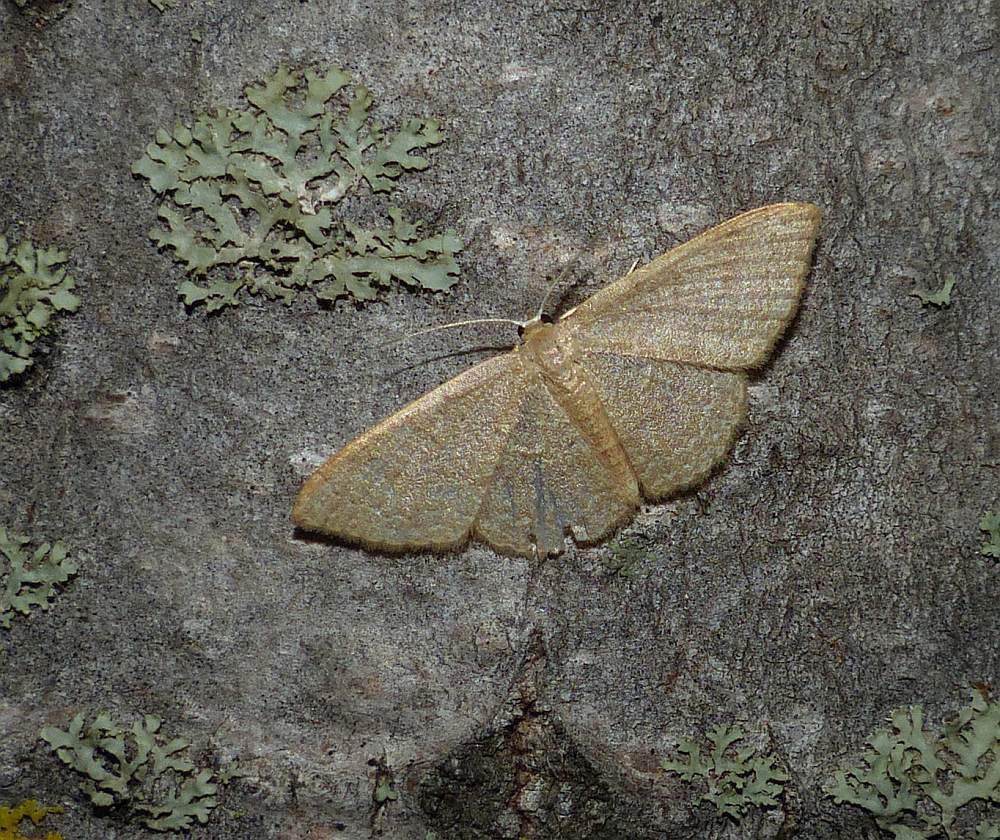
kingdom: Animalia
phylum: Arthropoda
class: Insecta
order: Lepidoptera
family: Geometridae
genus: Pleuroprucha
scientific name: Pleuroprucha insulsaria
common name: Common tan wave
